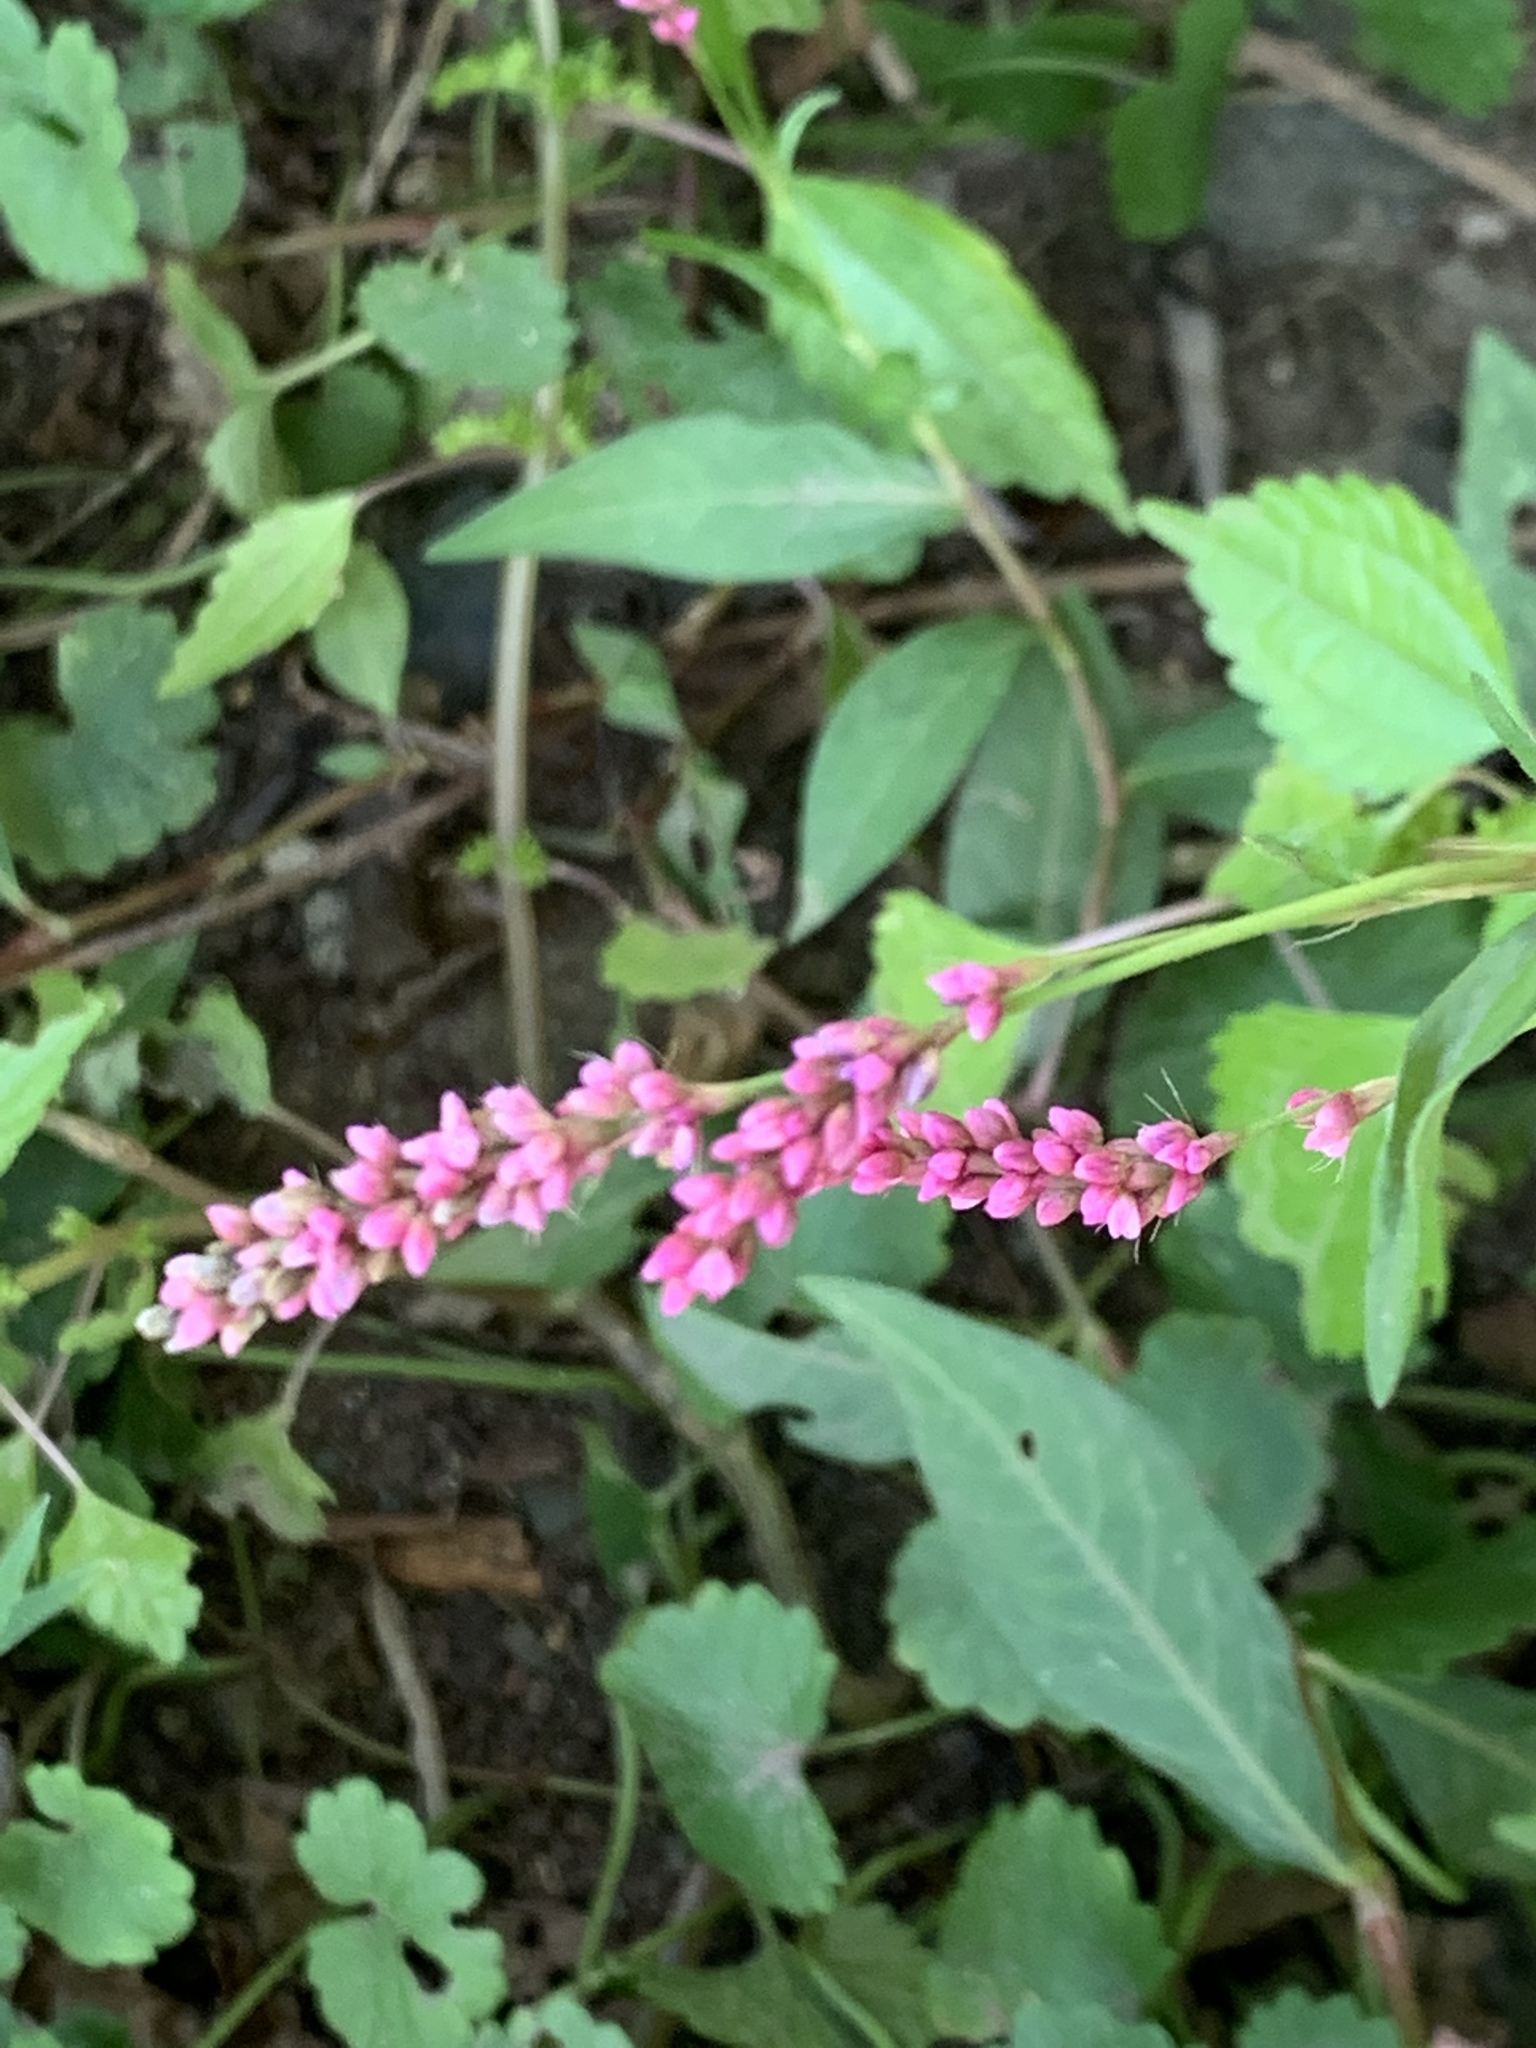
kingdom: Plantae
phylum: Tracheophyta
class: Magnoliopsida
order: Caryophyllales
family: Polygonaceae
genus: Persicaria
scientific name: Persicaria longiseta
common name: Bristly lady's-thumb
